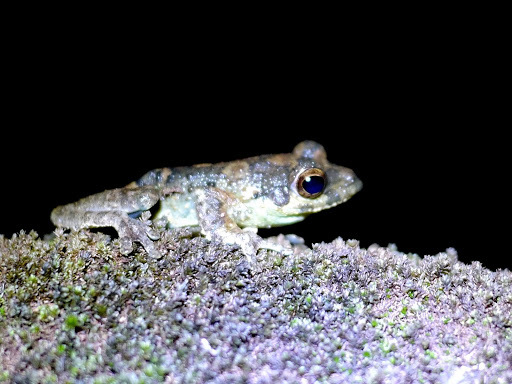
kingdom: Animalia
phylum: Chordata
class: Amphibia
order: Anura
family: Rhacophoridae
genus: Chiromantis
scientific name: Chiromantis rufescens
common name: African foam-nest treefrog
